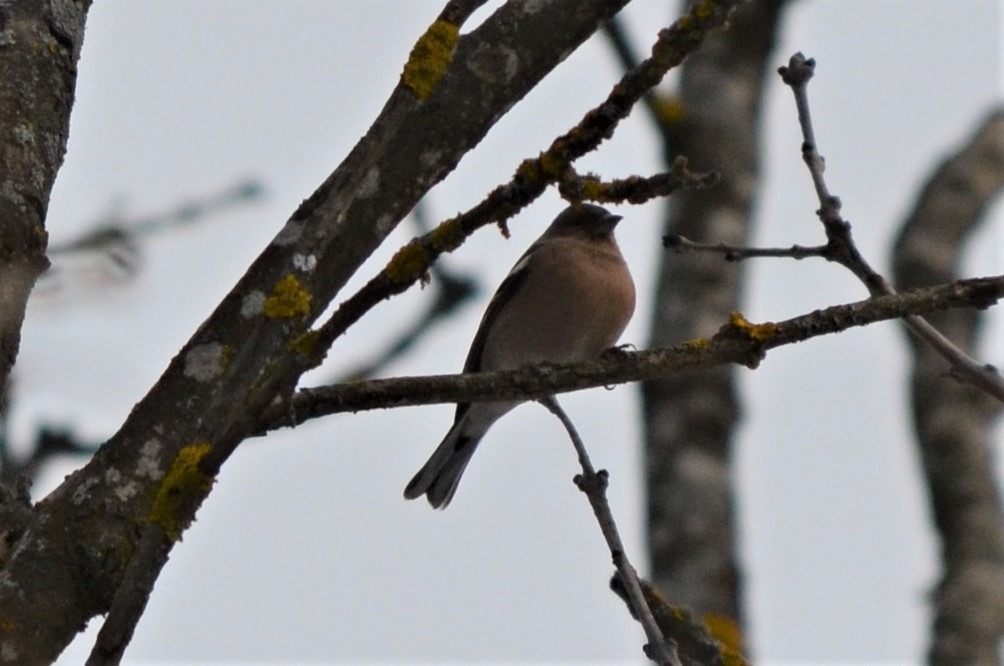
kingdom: Animalia
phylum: Chordata
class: Aves
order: Passeriformes
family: Fringillidae
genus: Fringilla
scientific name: Fringilla coelebs
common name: Common chaffinch
